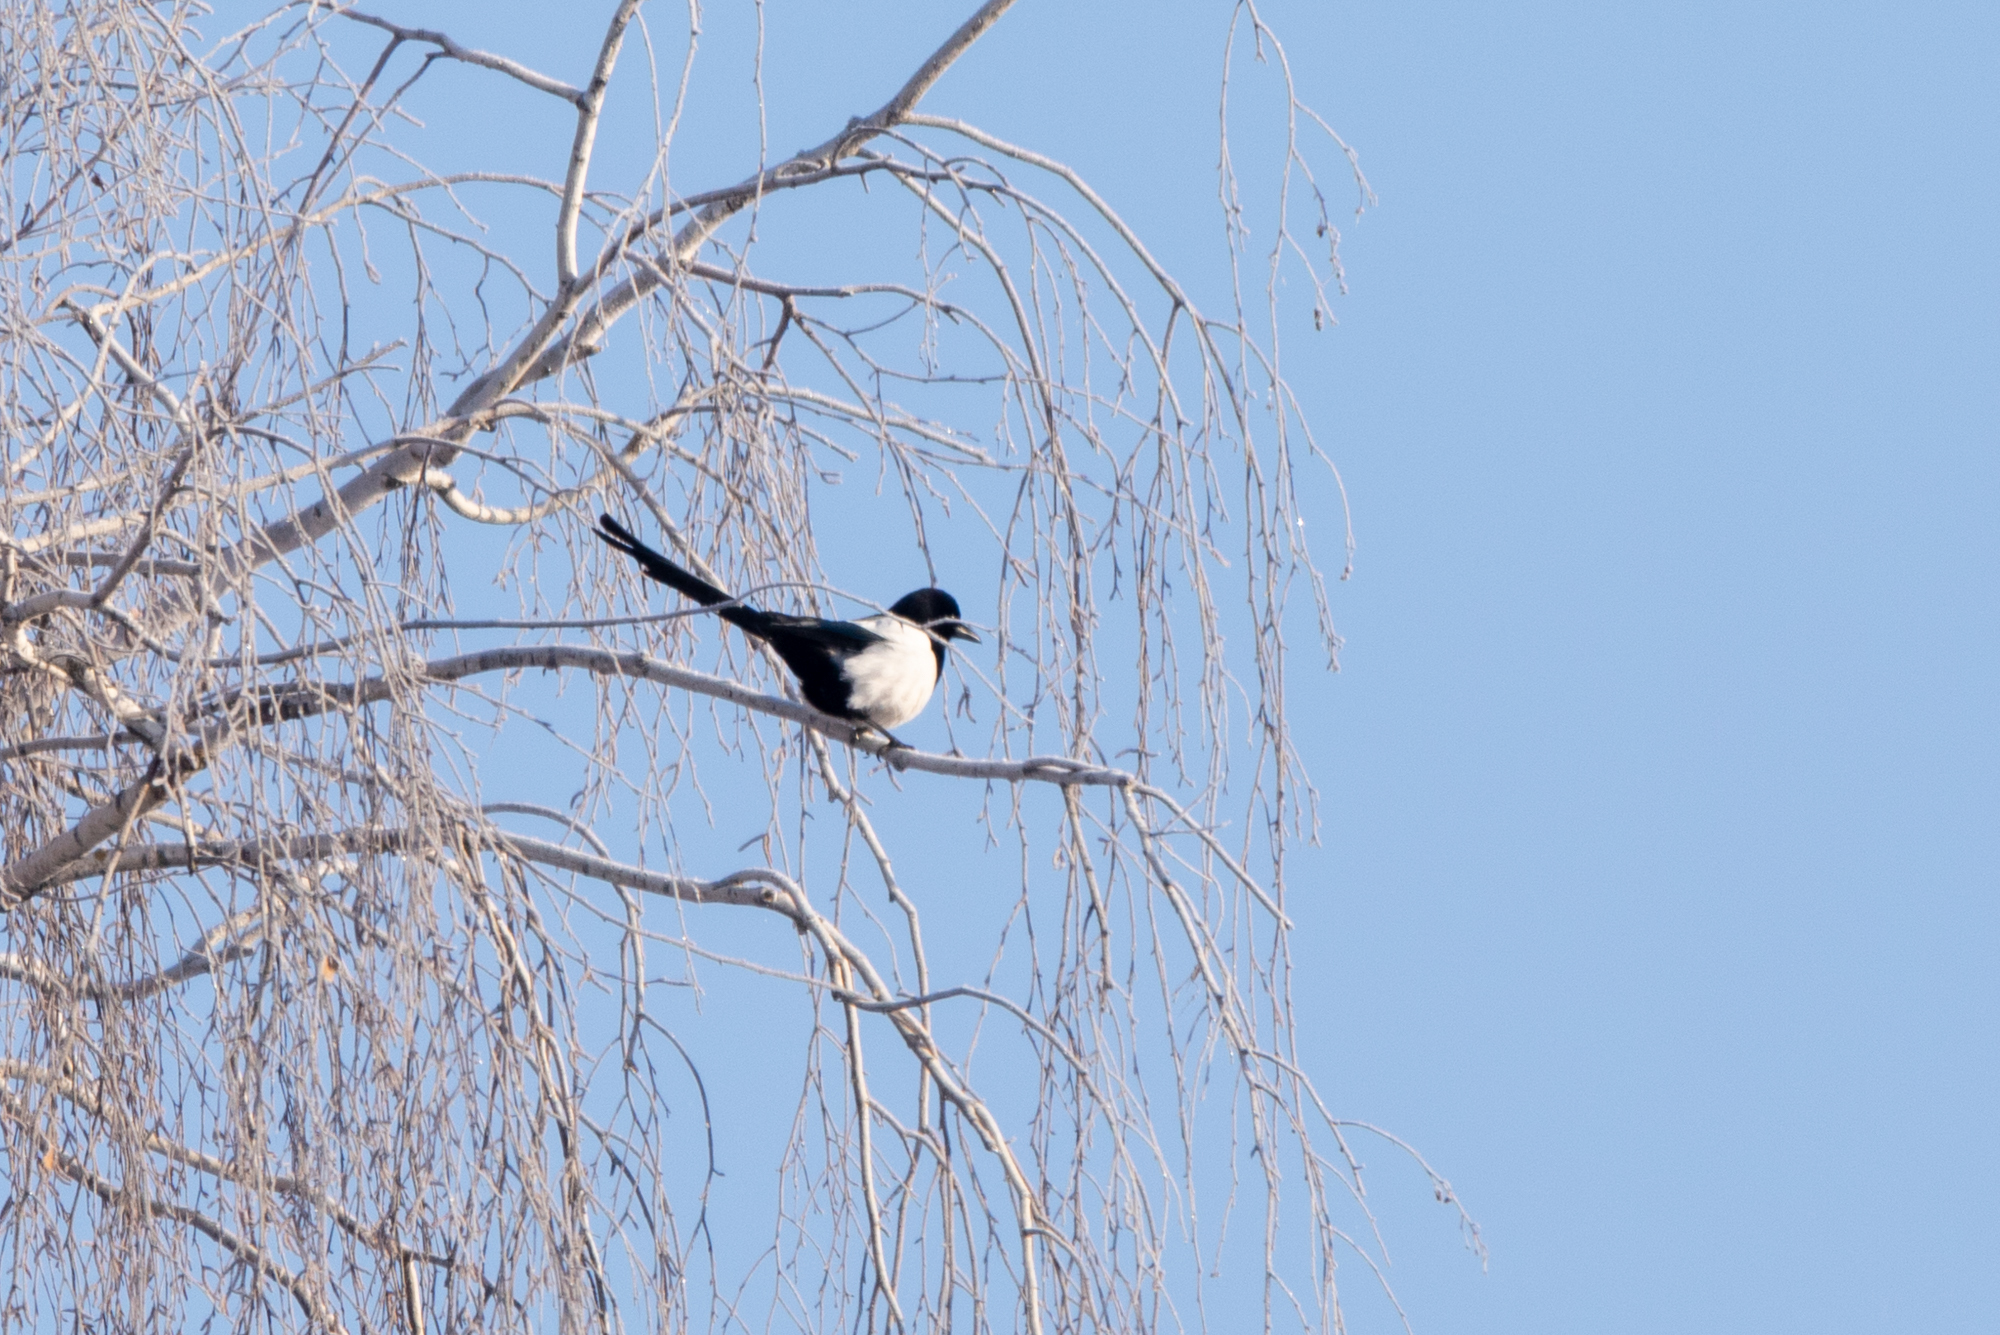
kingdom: Animalia
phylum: Chordata
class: Aves
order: Passeriformes
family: Corvidae
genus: Pica
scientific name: Pica pica
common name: Eurasian magpie
